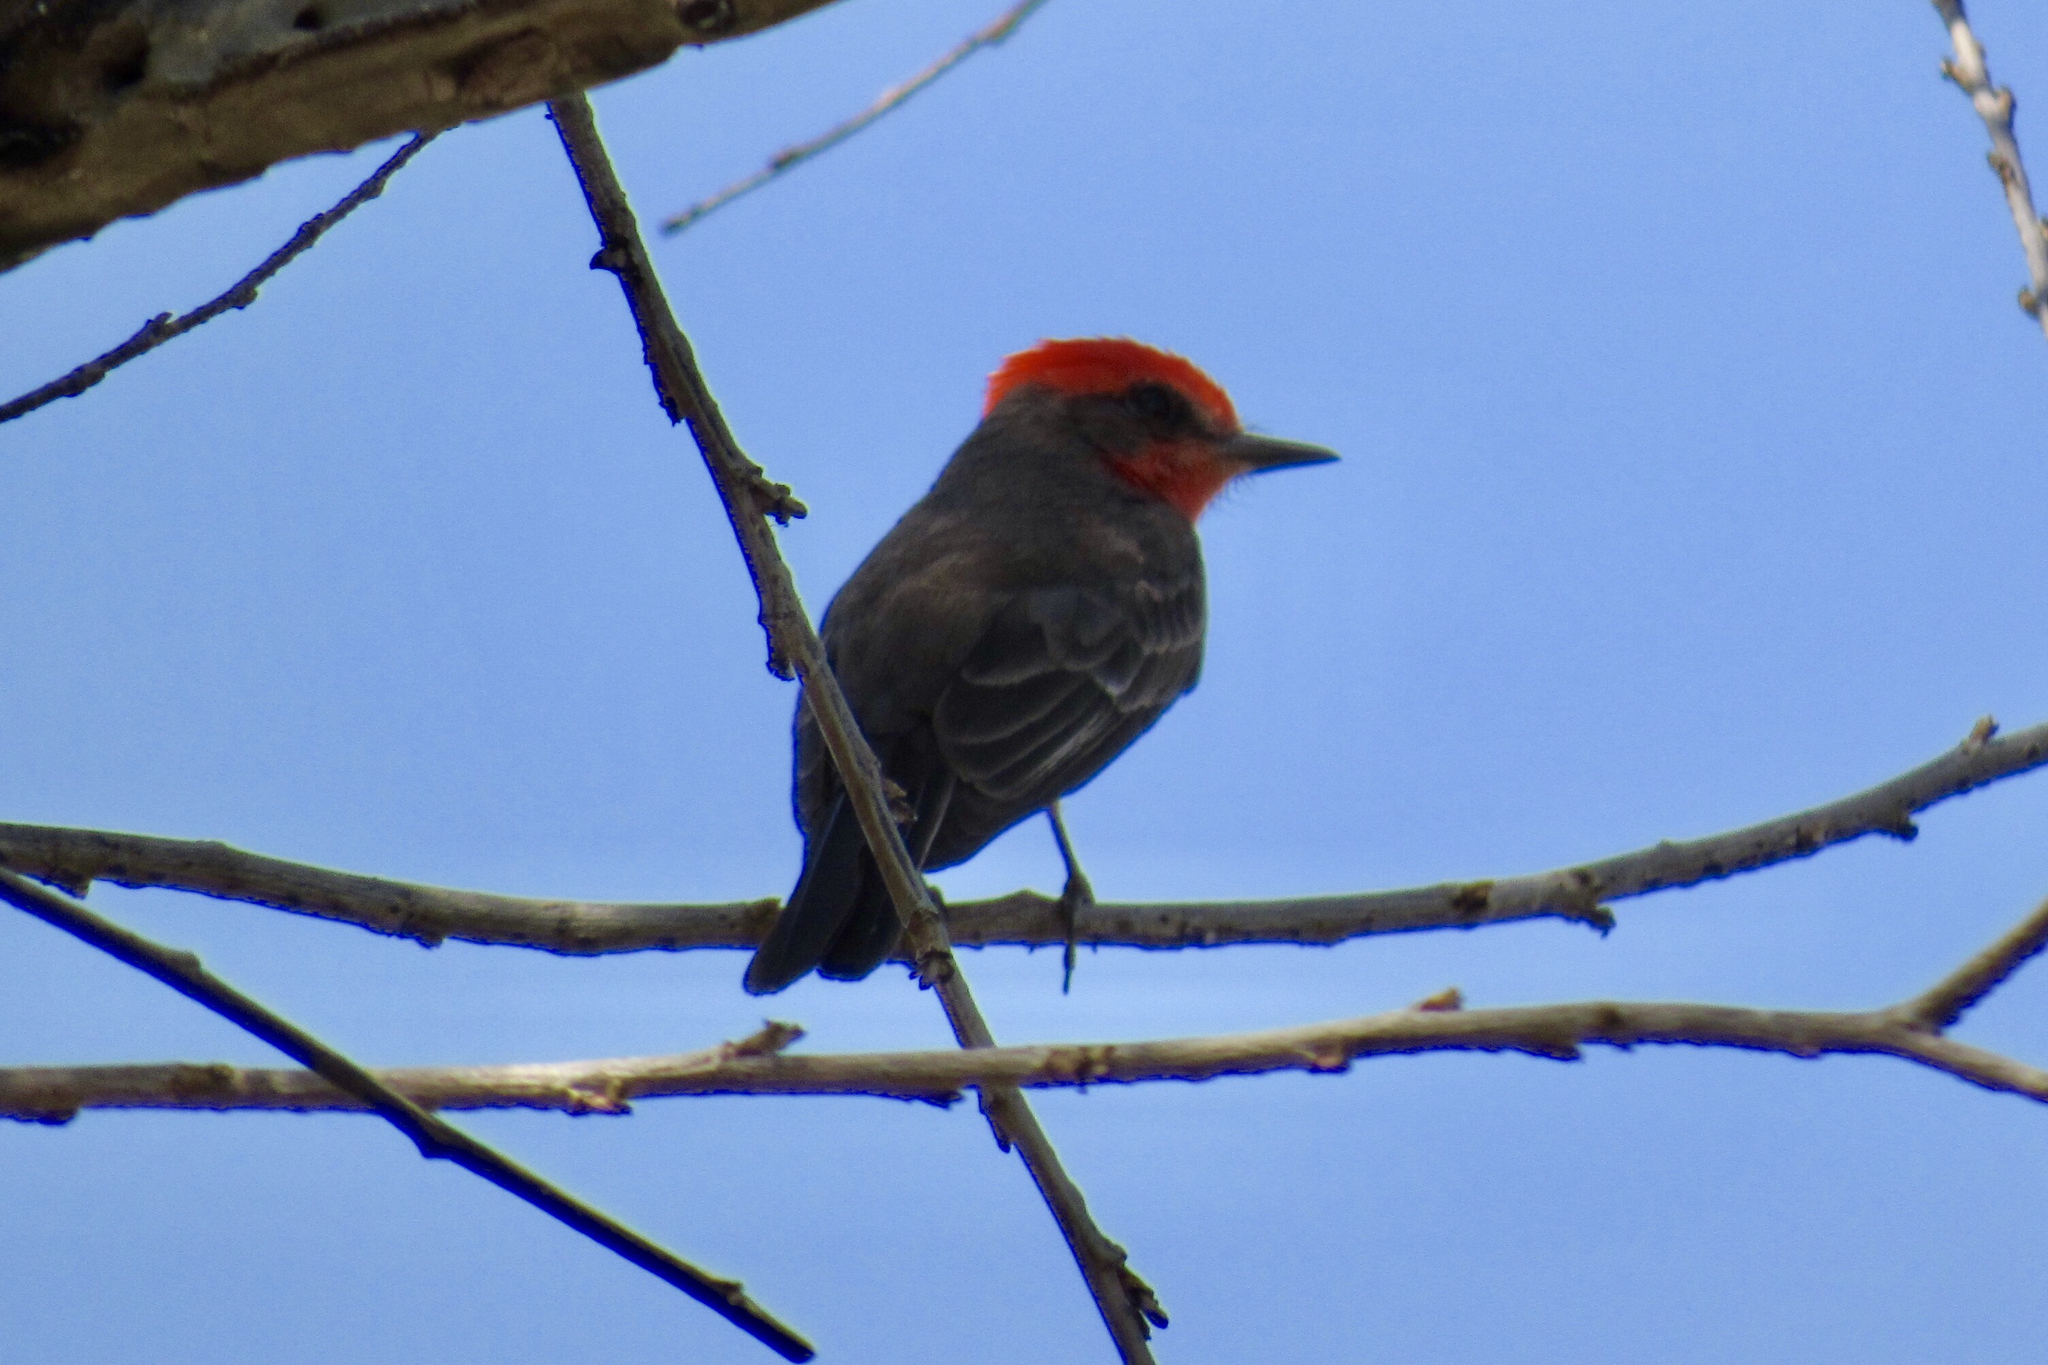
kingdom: Animalia
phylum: Chordata
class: Aves
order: Passeriformes
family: Tyrannidae
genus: Pyrocephalus
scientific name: Pyrocephalus rubinus
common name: Vermilion flycatcher
